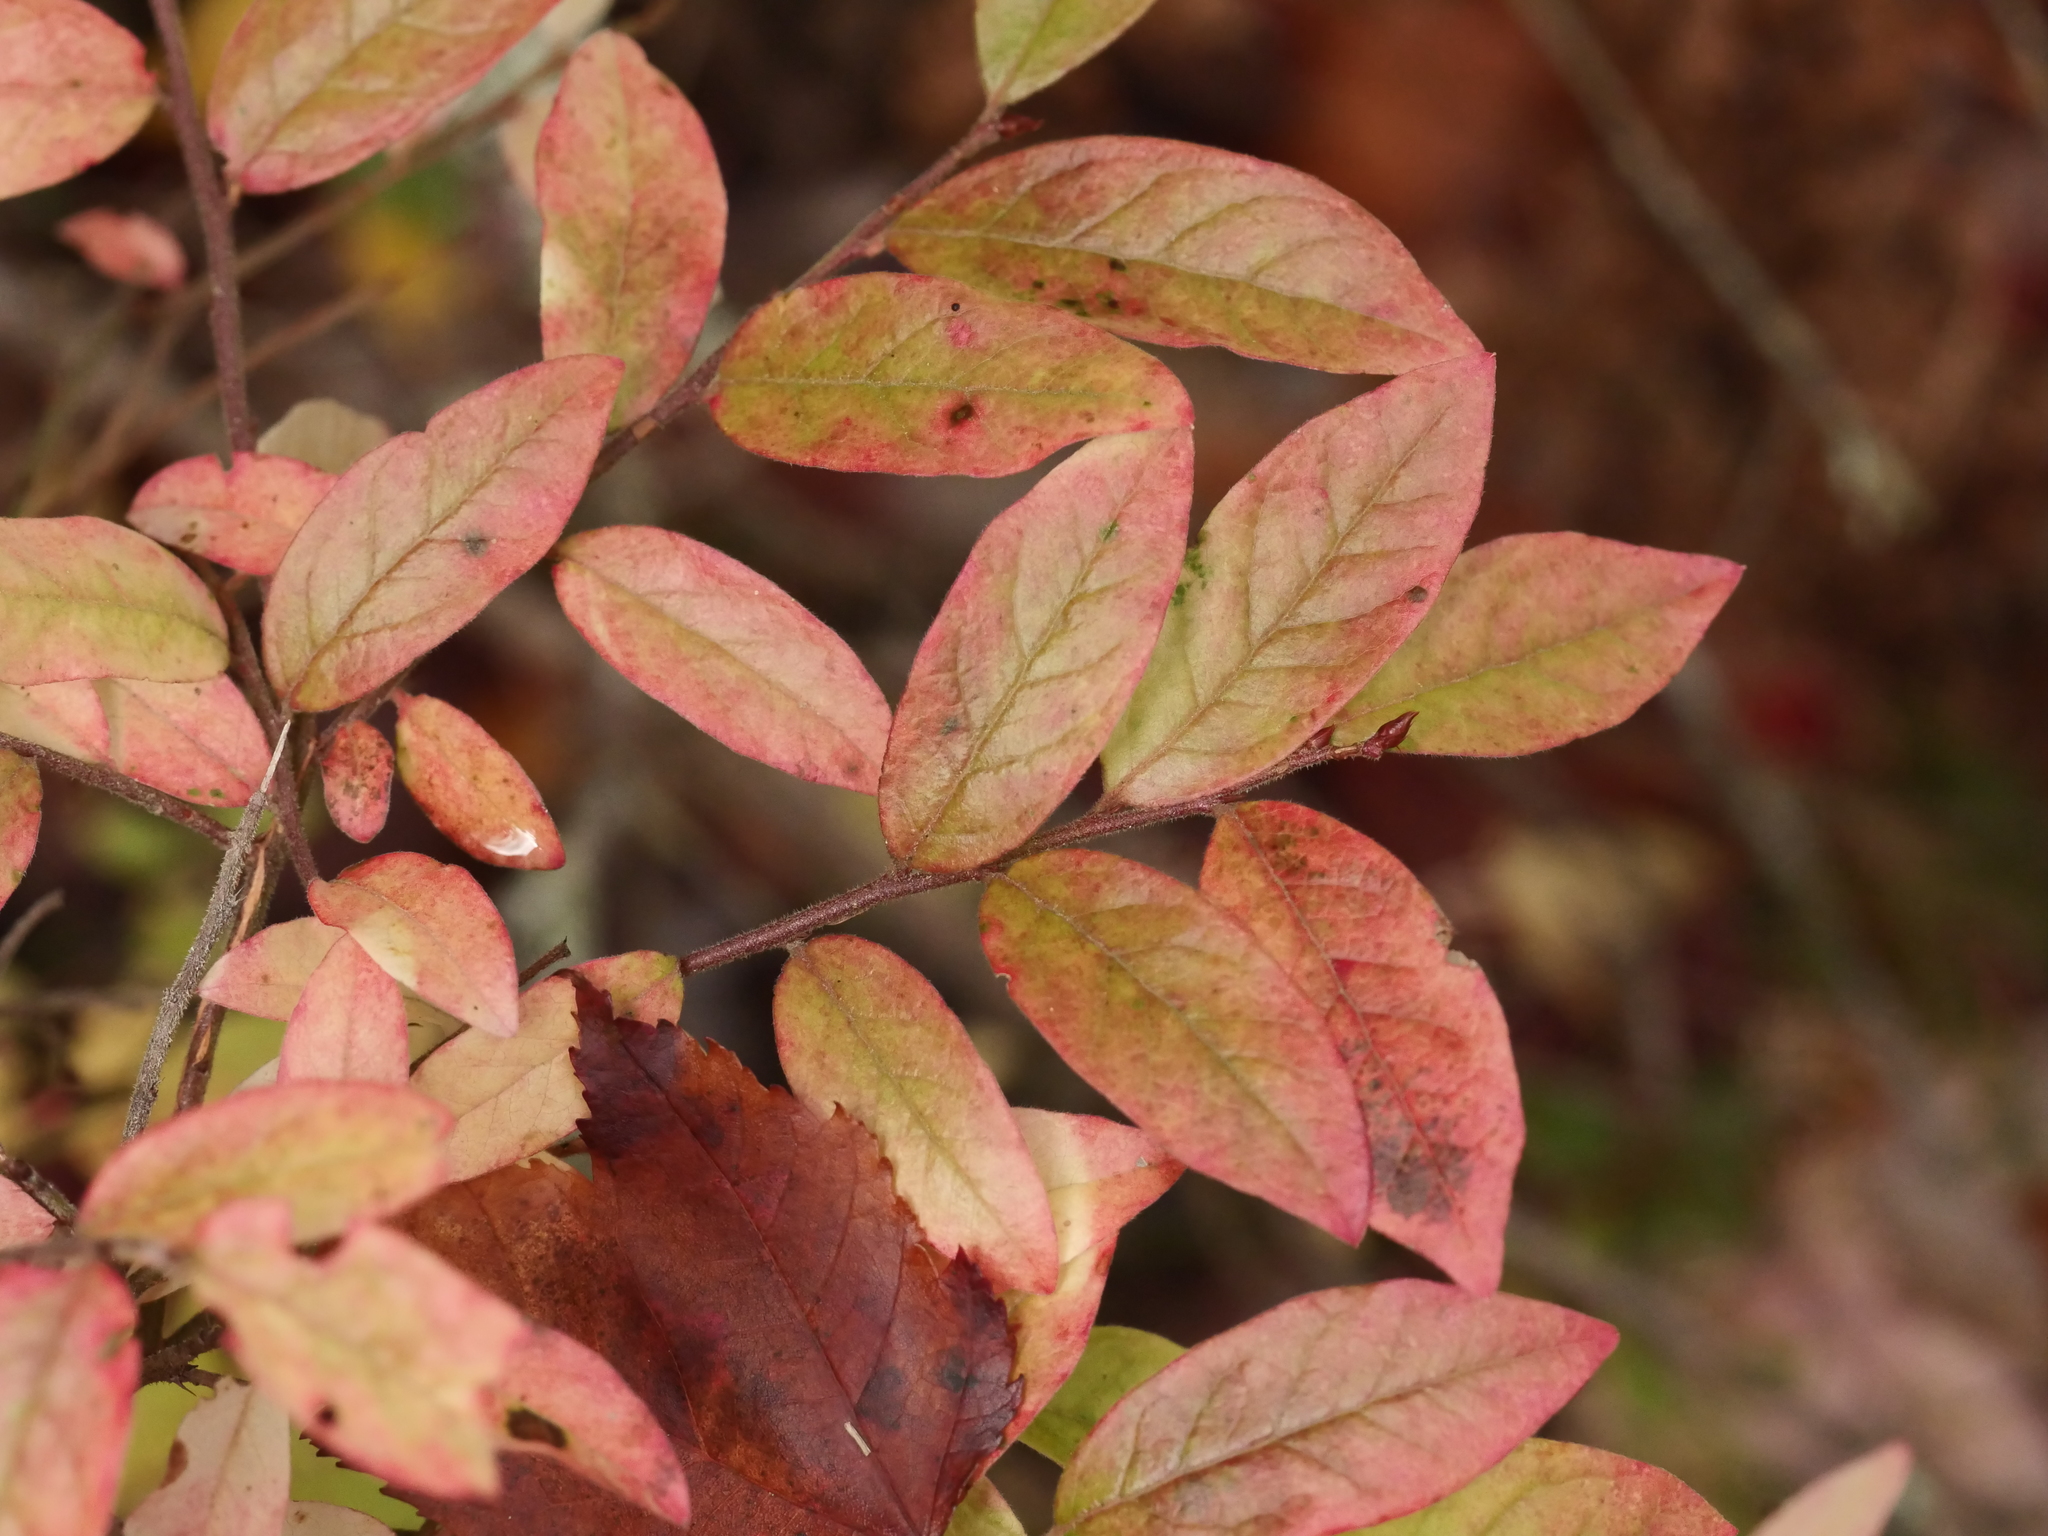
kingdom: Plantae
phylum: Tracheophyta
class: Magnoliopsida
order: Ericales
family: Ericaceae
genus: Vaccinium
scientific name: Vaccinium angustifolium
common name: Early lowbush blueberry
